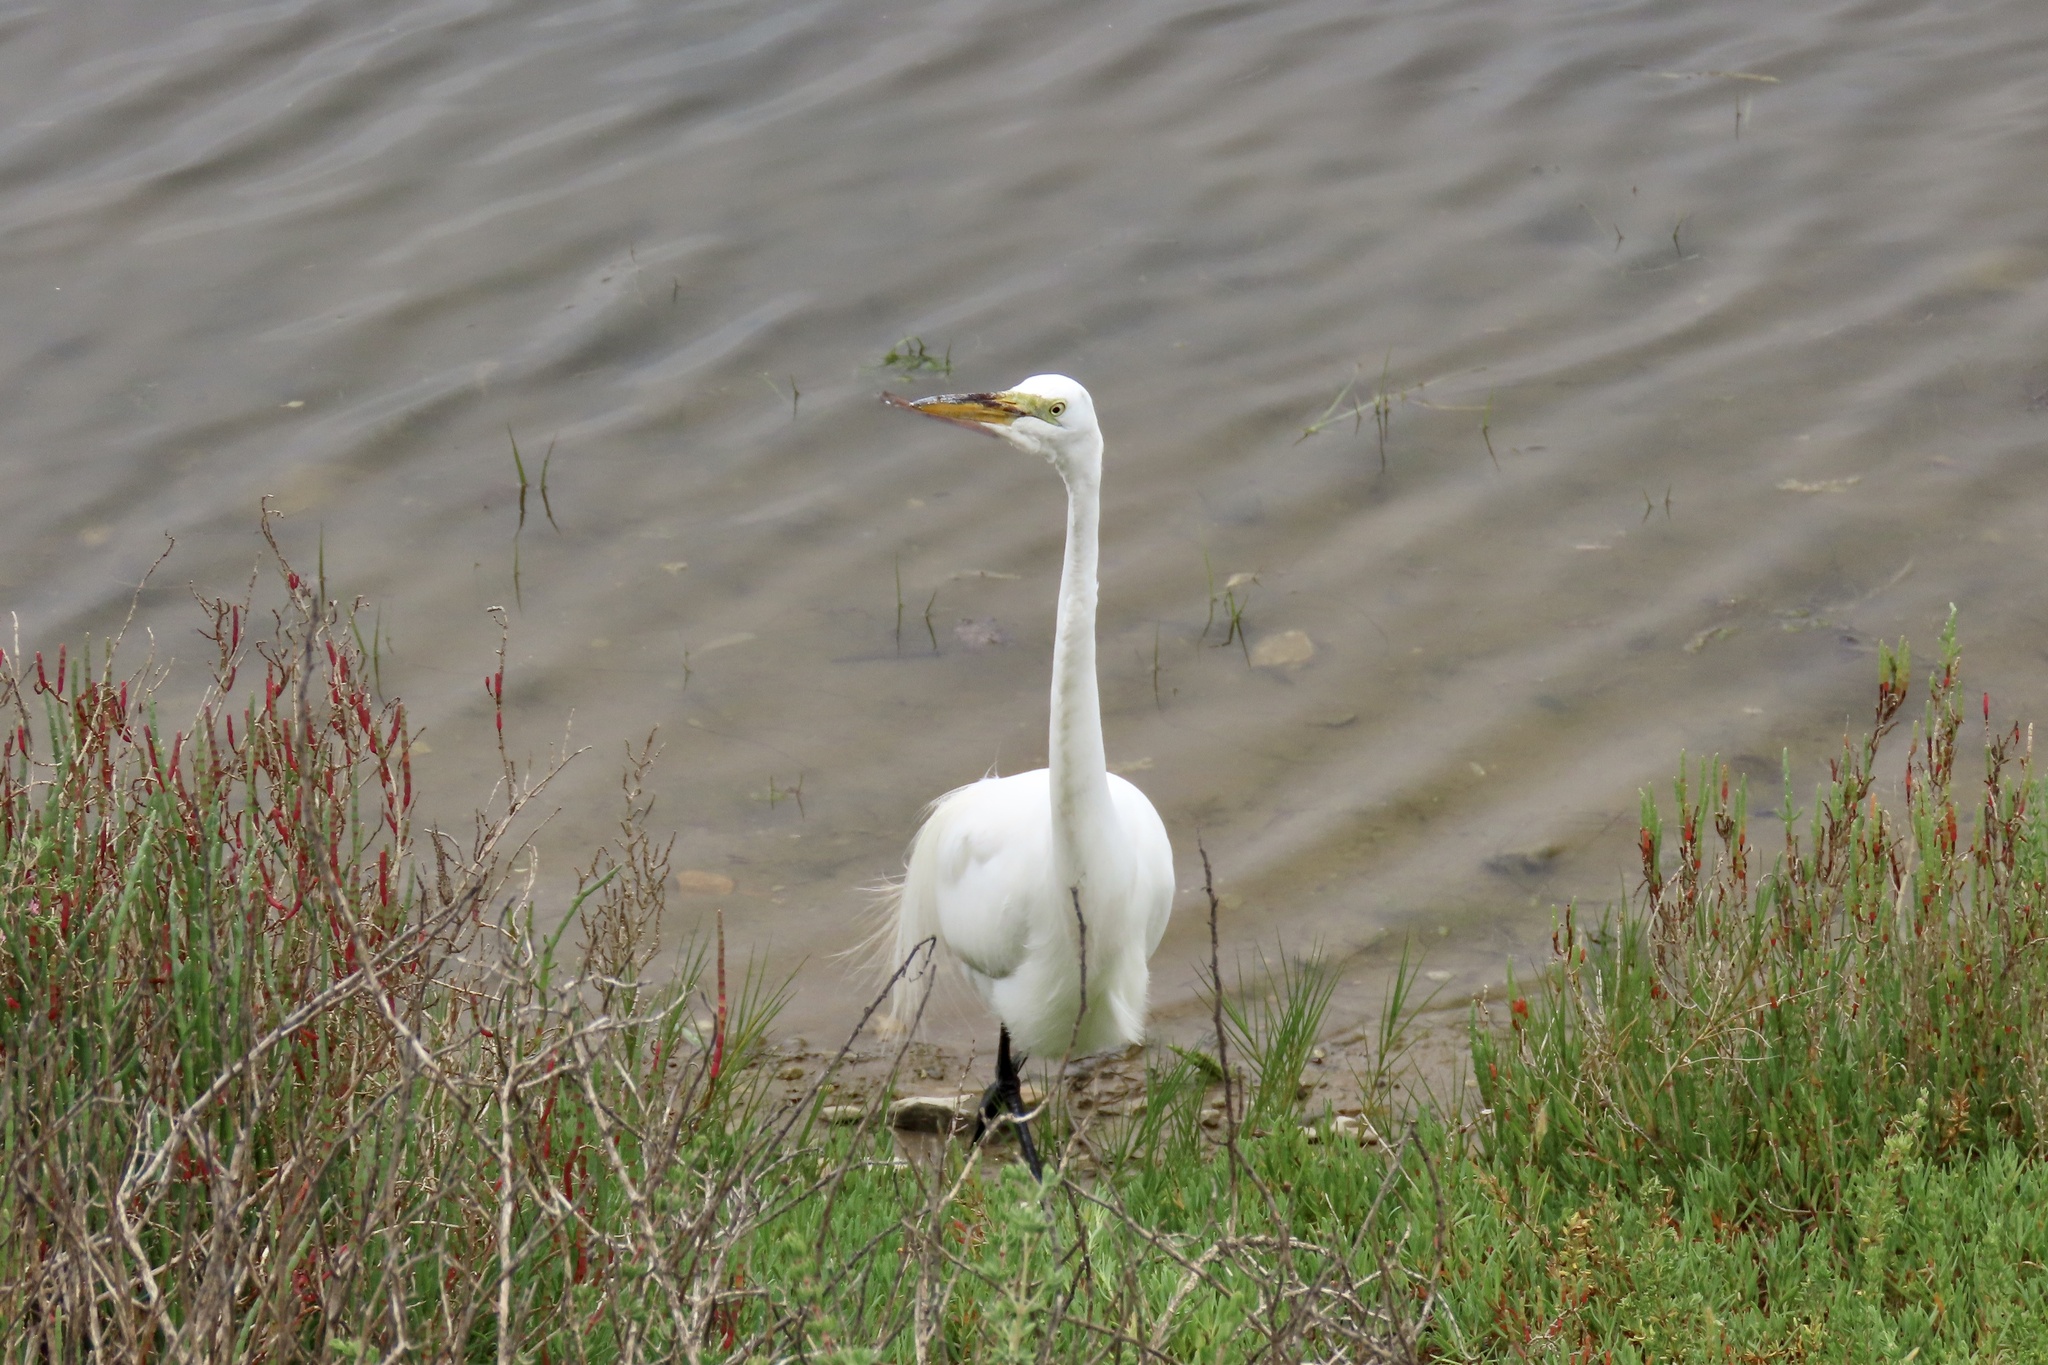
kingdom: Animalia
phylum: Chordata
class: Aves
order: Pelecaniformes
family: Ardeidae
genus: Ardea
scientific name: Ardea alba
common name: Great egret
